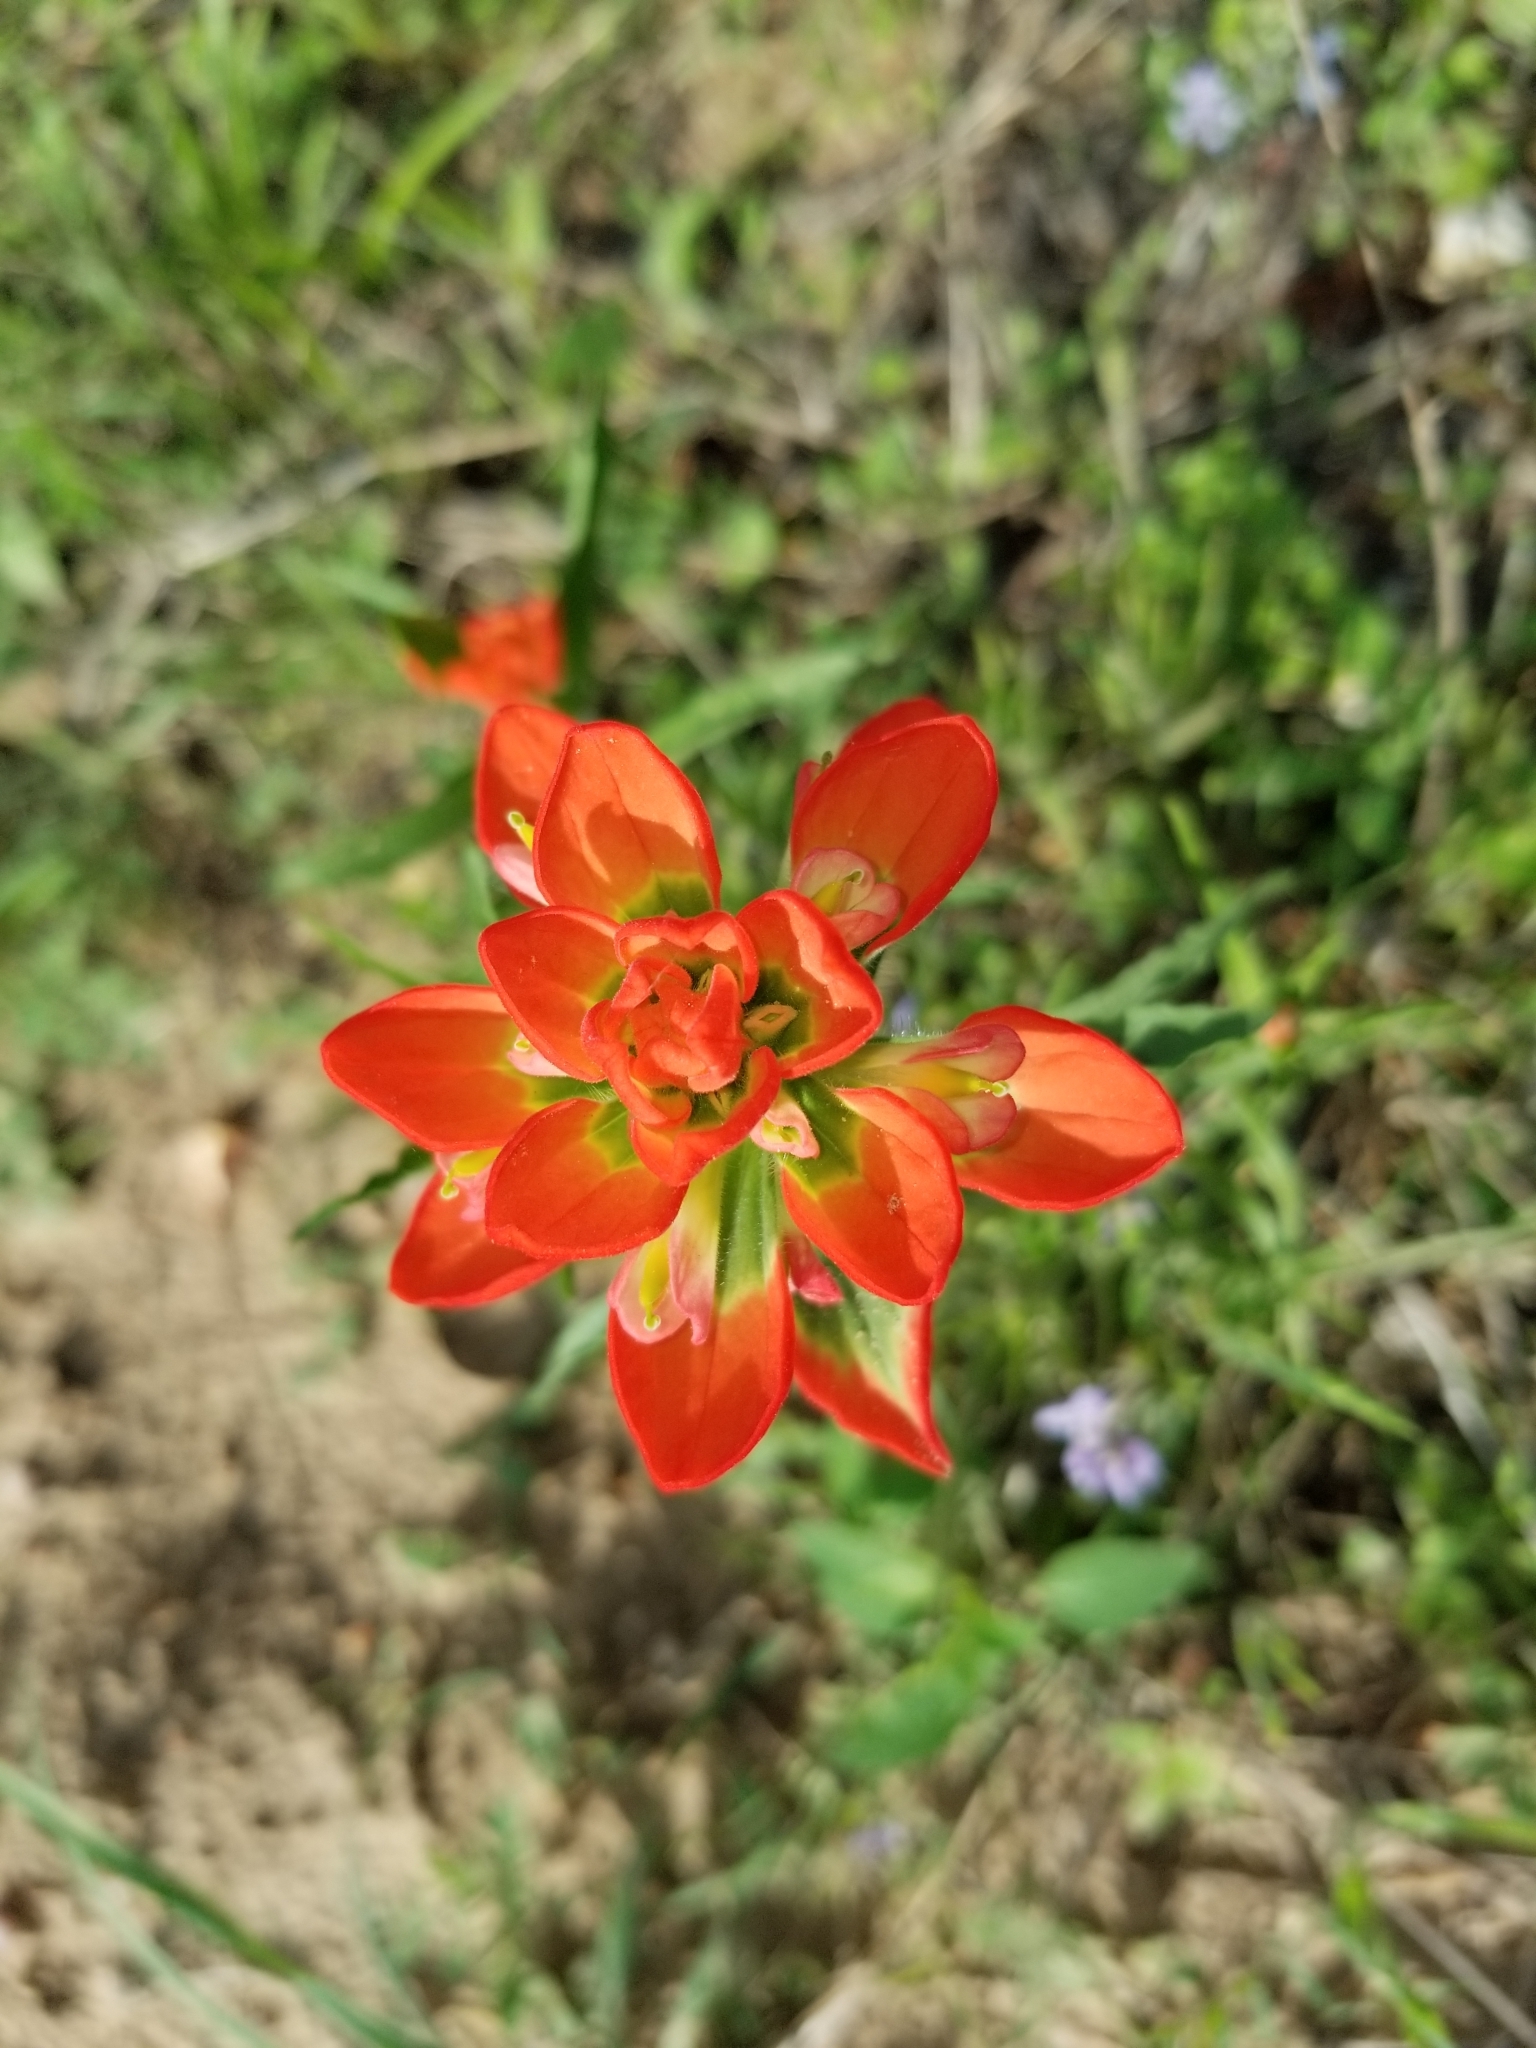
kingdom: Plantae
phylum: Tracheophyta
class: Magnoliopsida
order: Lamiales
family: Orobanchaceae
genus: Castilleja
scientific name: Castilleja indivisa
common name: Texas paintbrush
